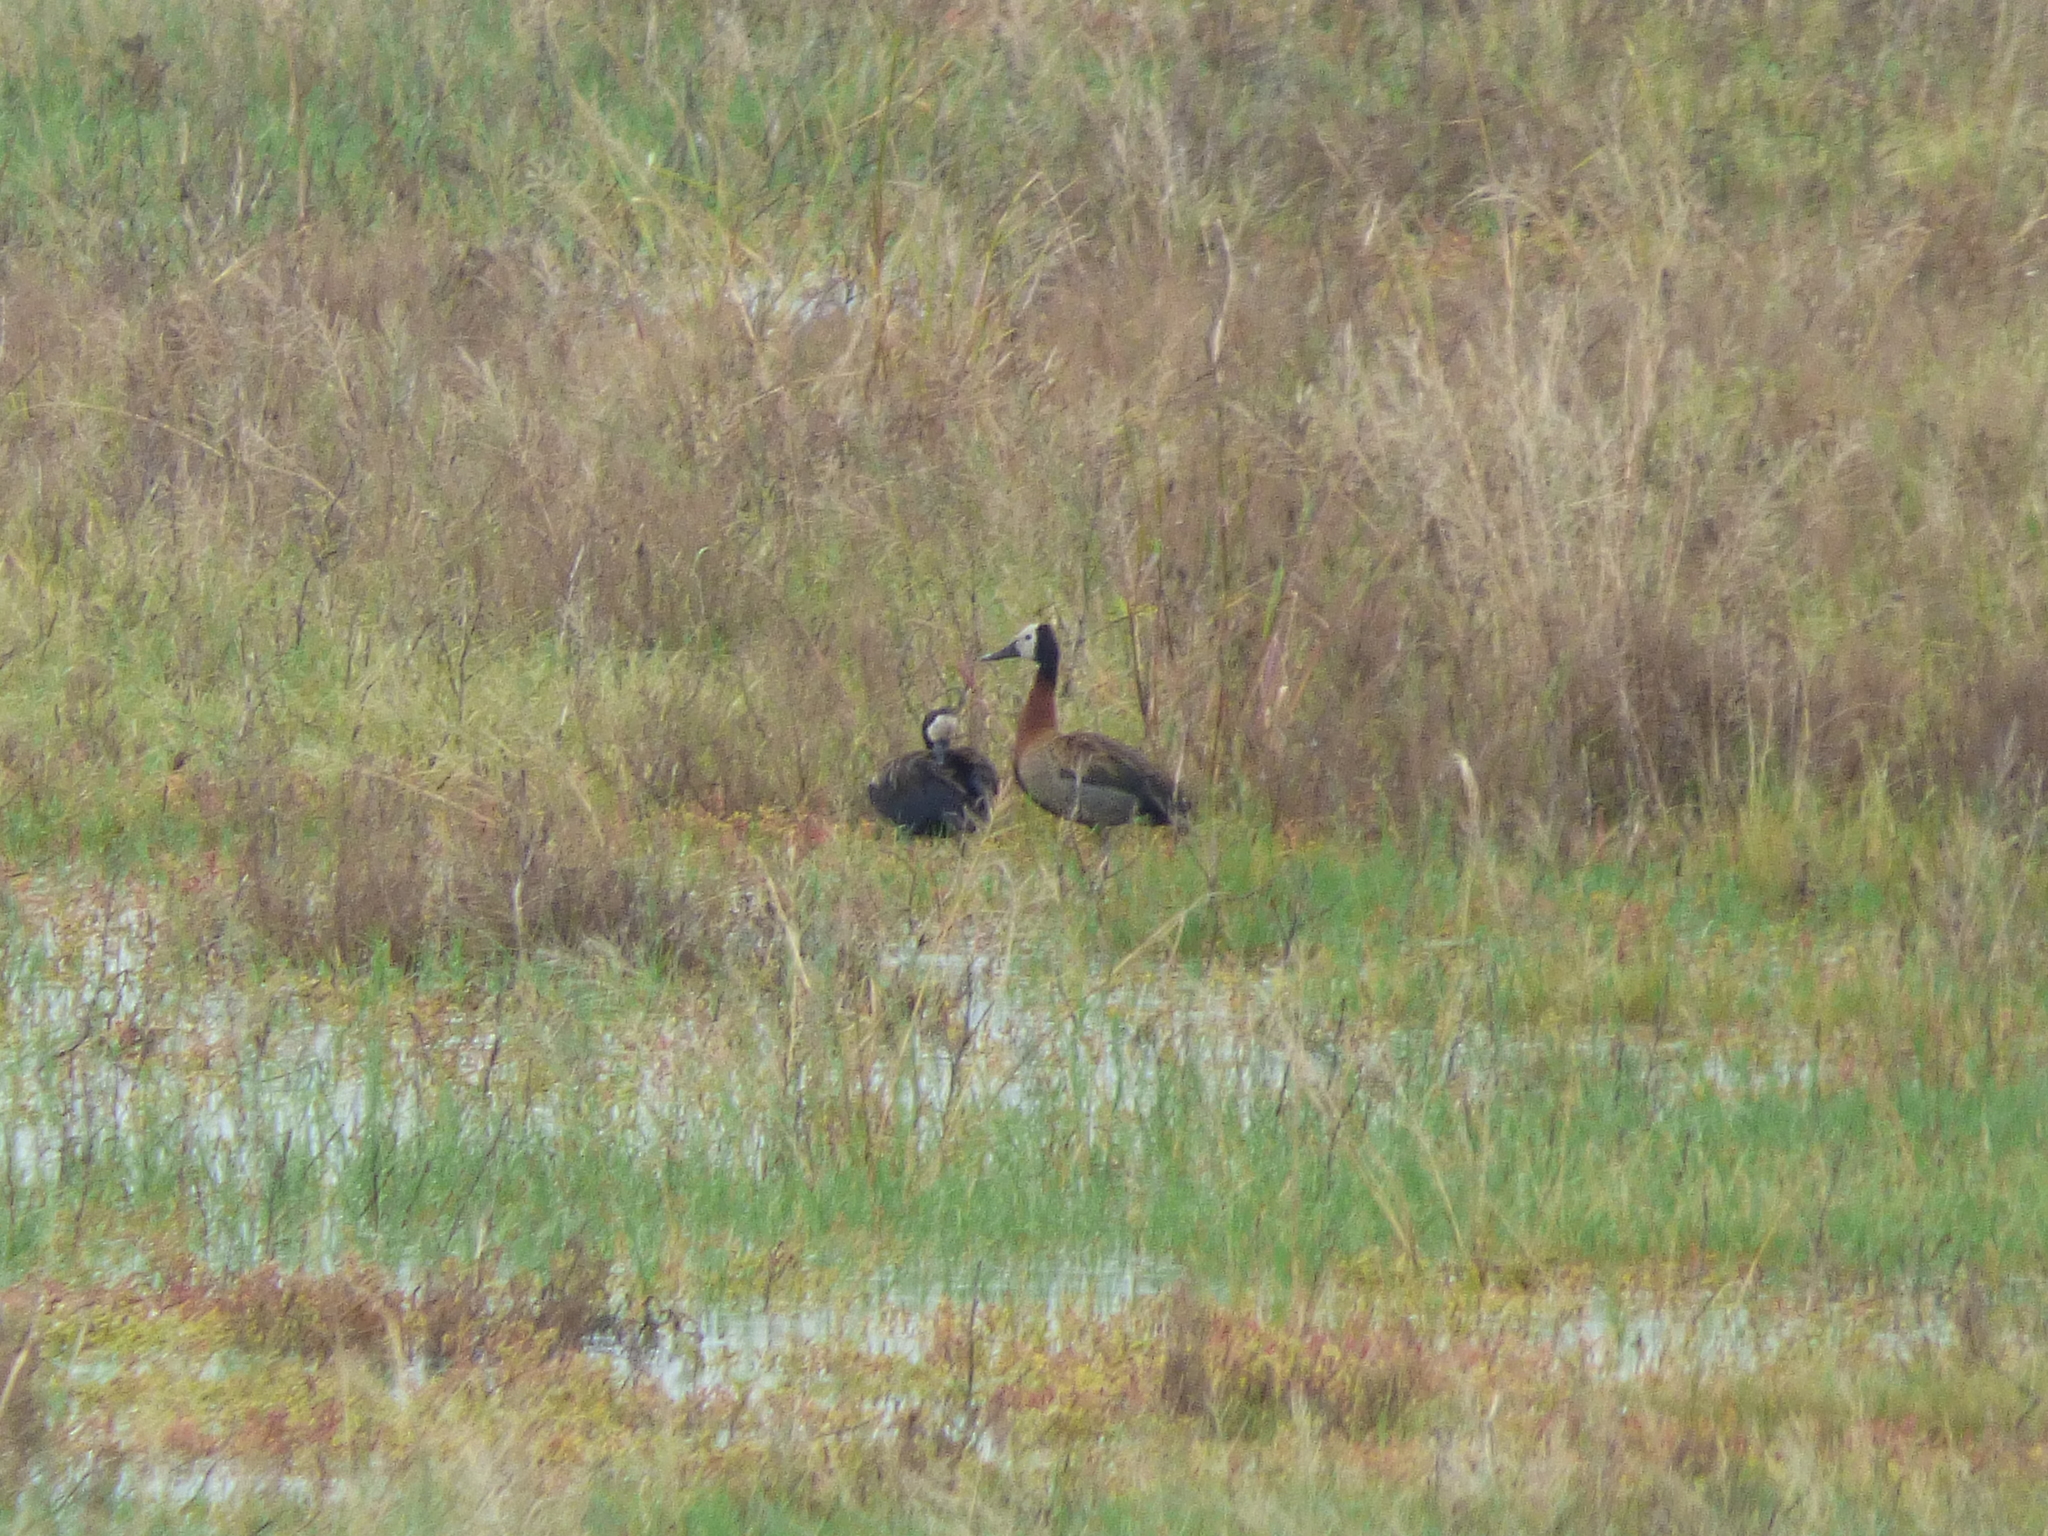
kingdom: Animalia
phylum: Chordata
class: Aves
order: Anseriformes
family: Anatidae
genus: Dendrocygna
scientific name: Dendrocygna viduata
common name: White-faced whistling duck
